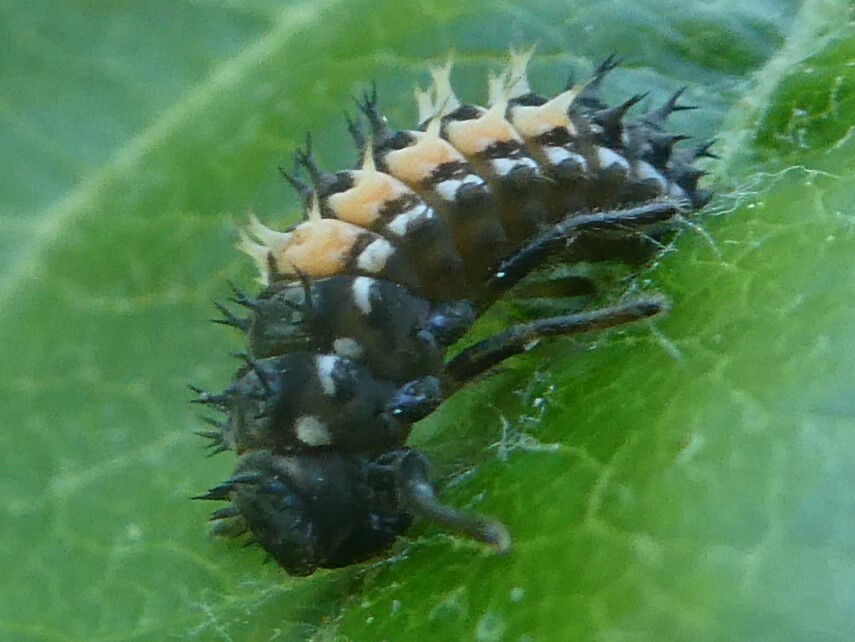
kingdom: Animalia
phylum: Arthropoda
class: Insecta
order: Coleoptera
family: Coccinellidae
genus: Harmonia
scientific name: Harmonia axyridis
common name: Harlequin ladybird
